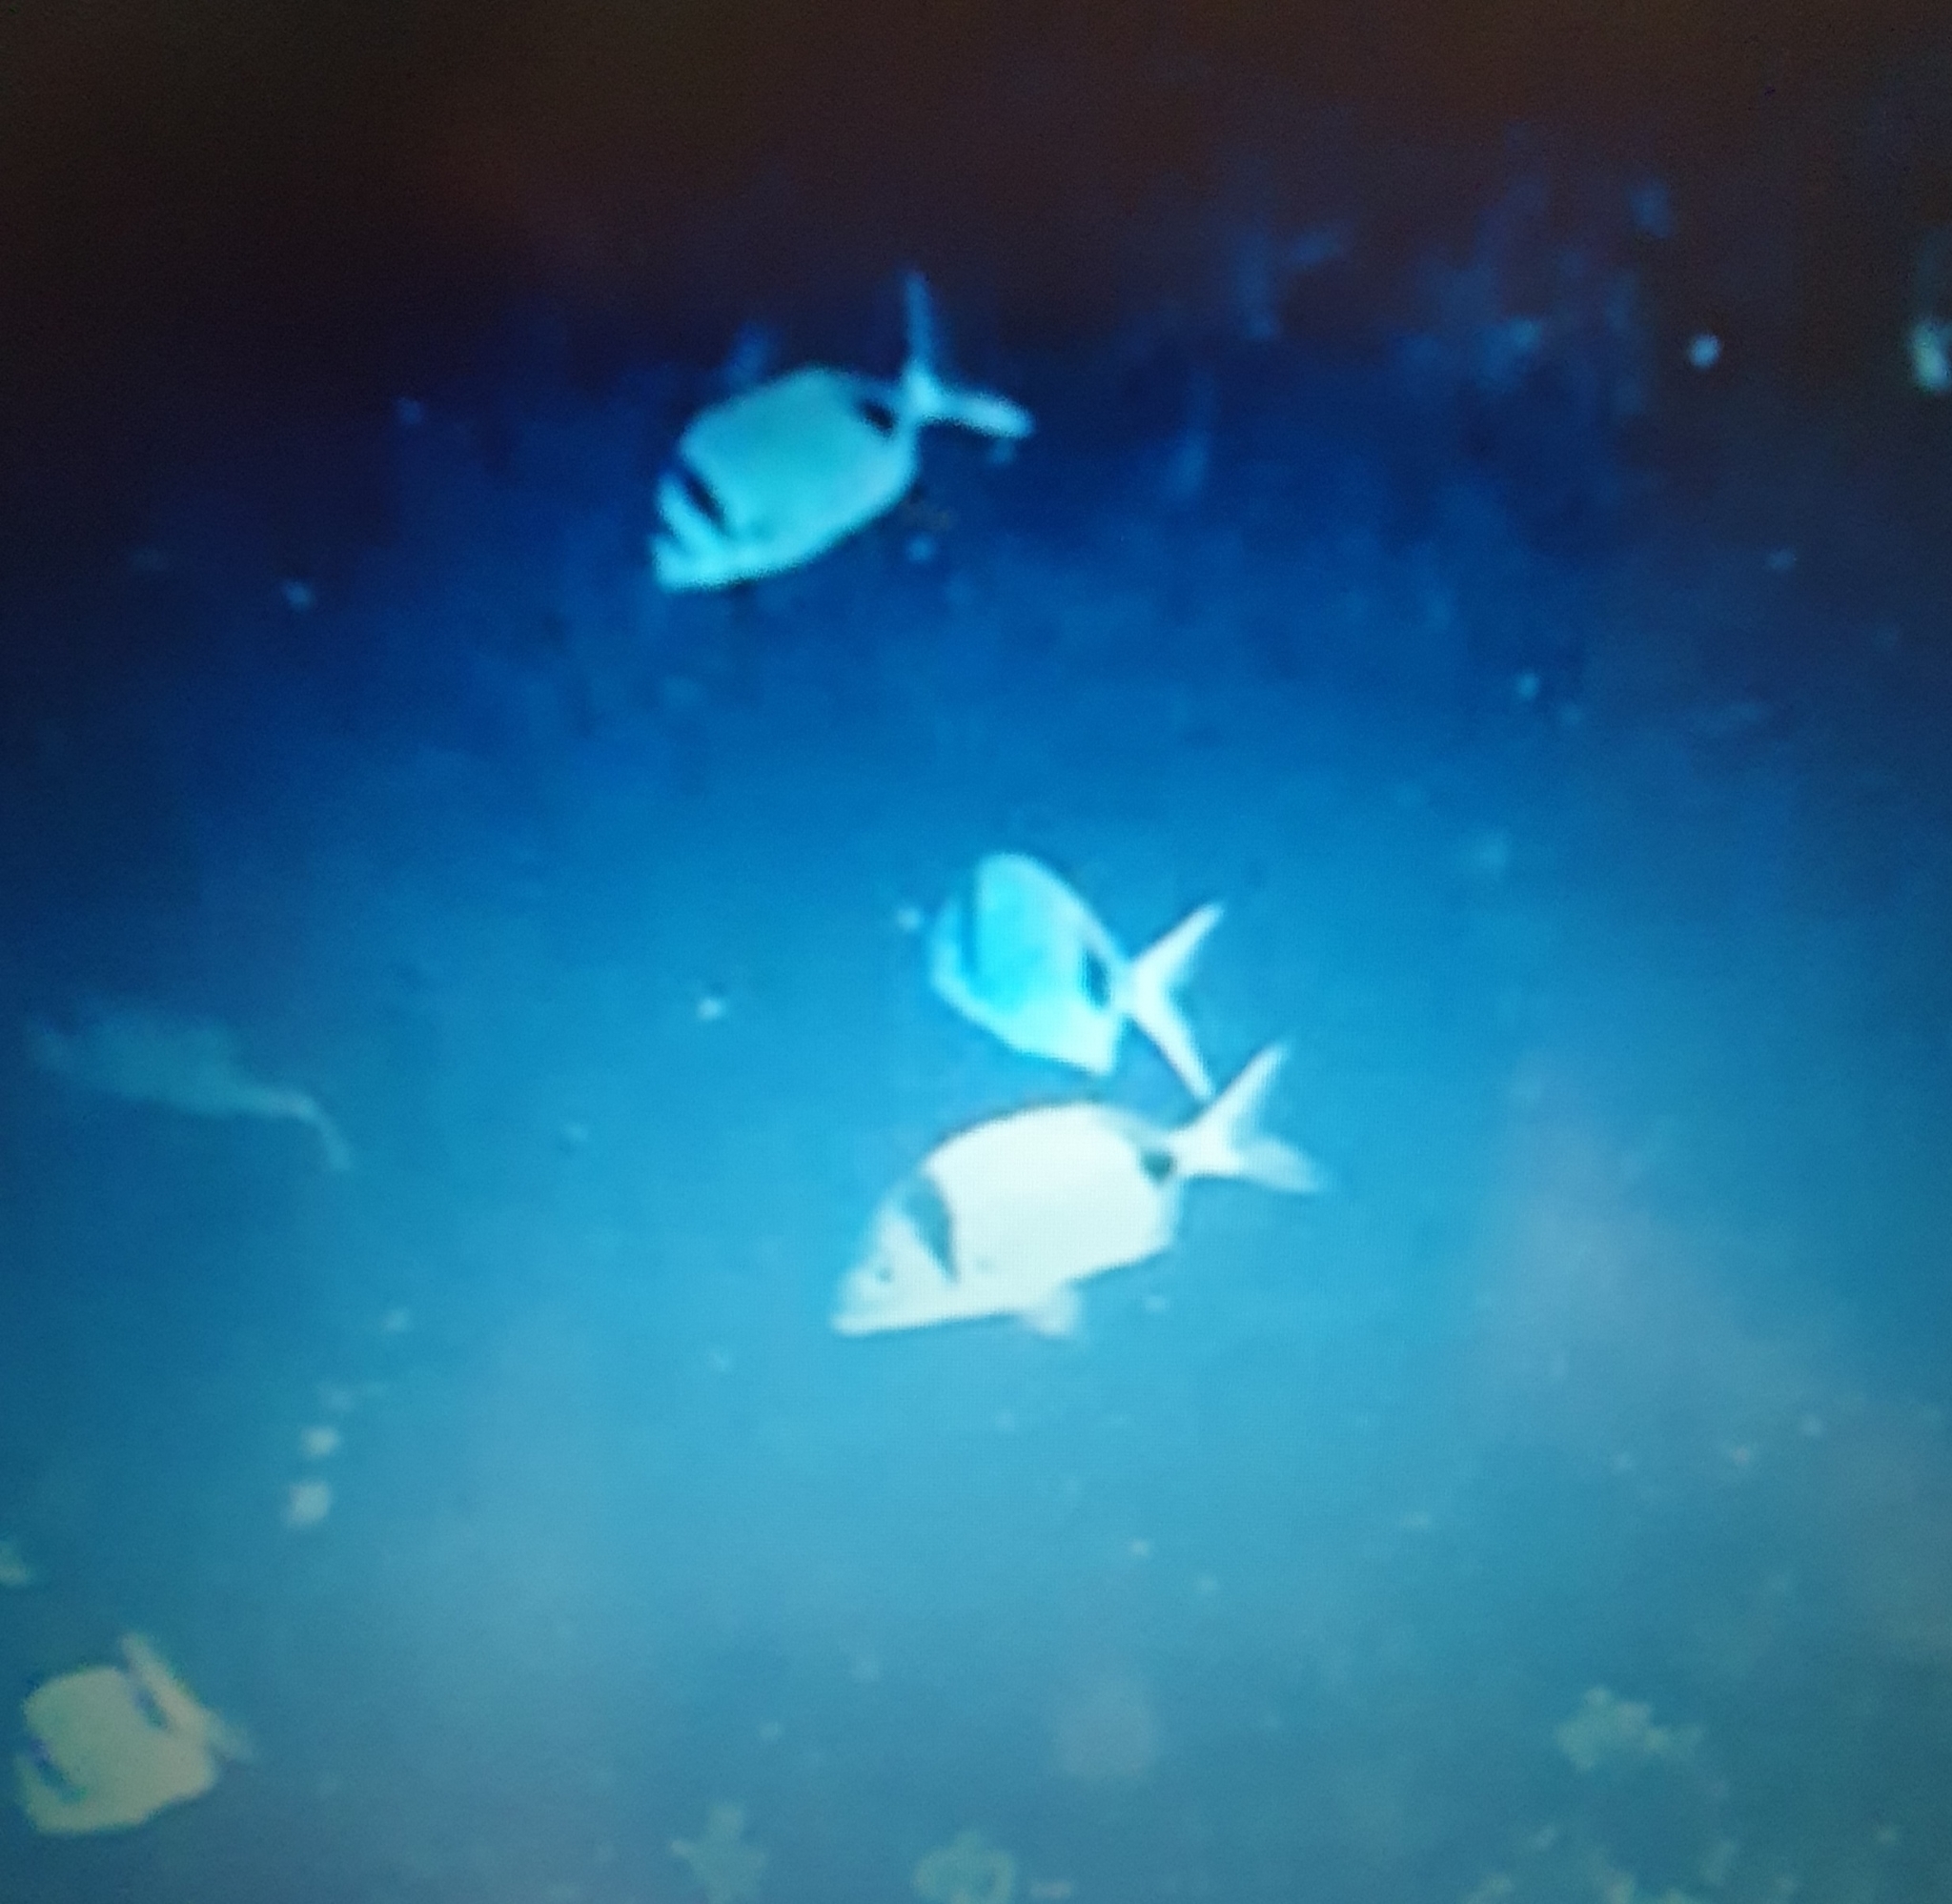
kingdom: Animalia
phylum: Chordata
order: Perciformes
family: Sparidae
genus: Diplodus
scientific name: Diplodus vulgaris
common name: Common two-banded seabream
